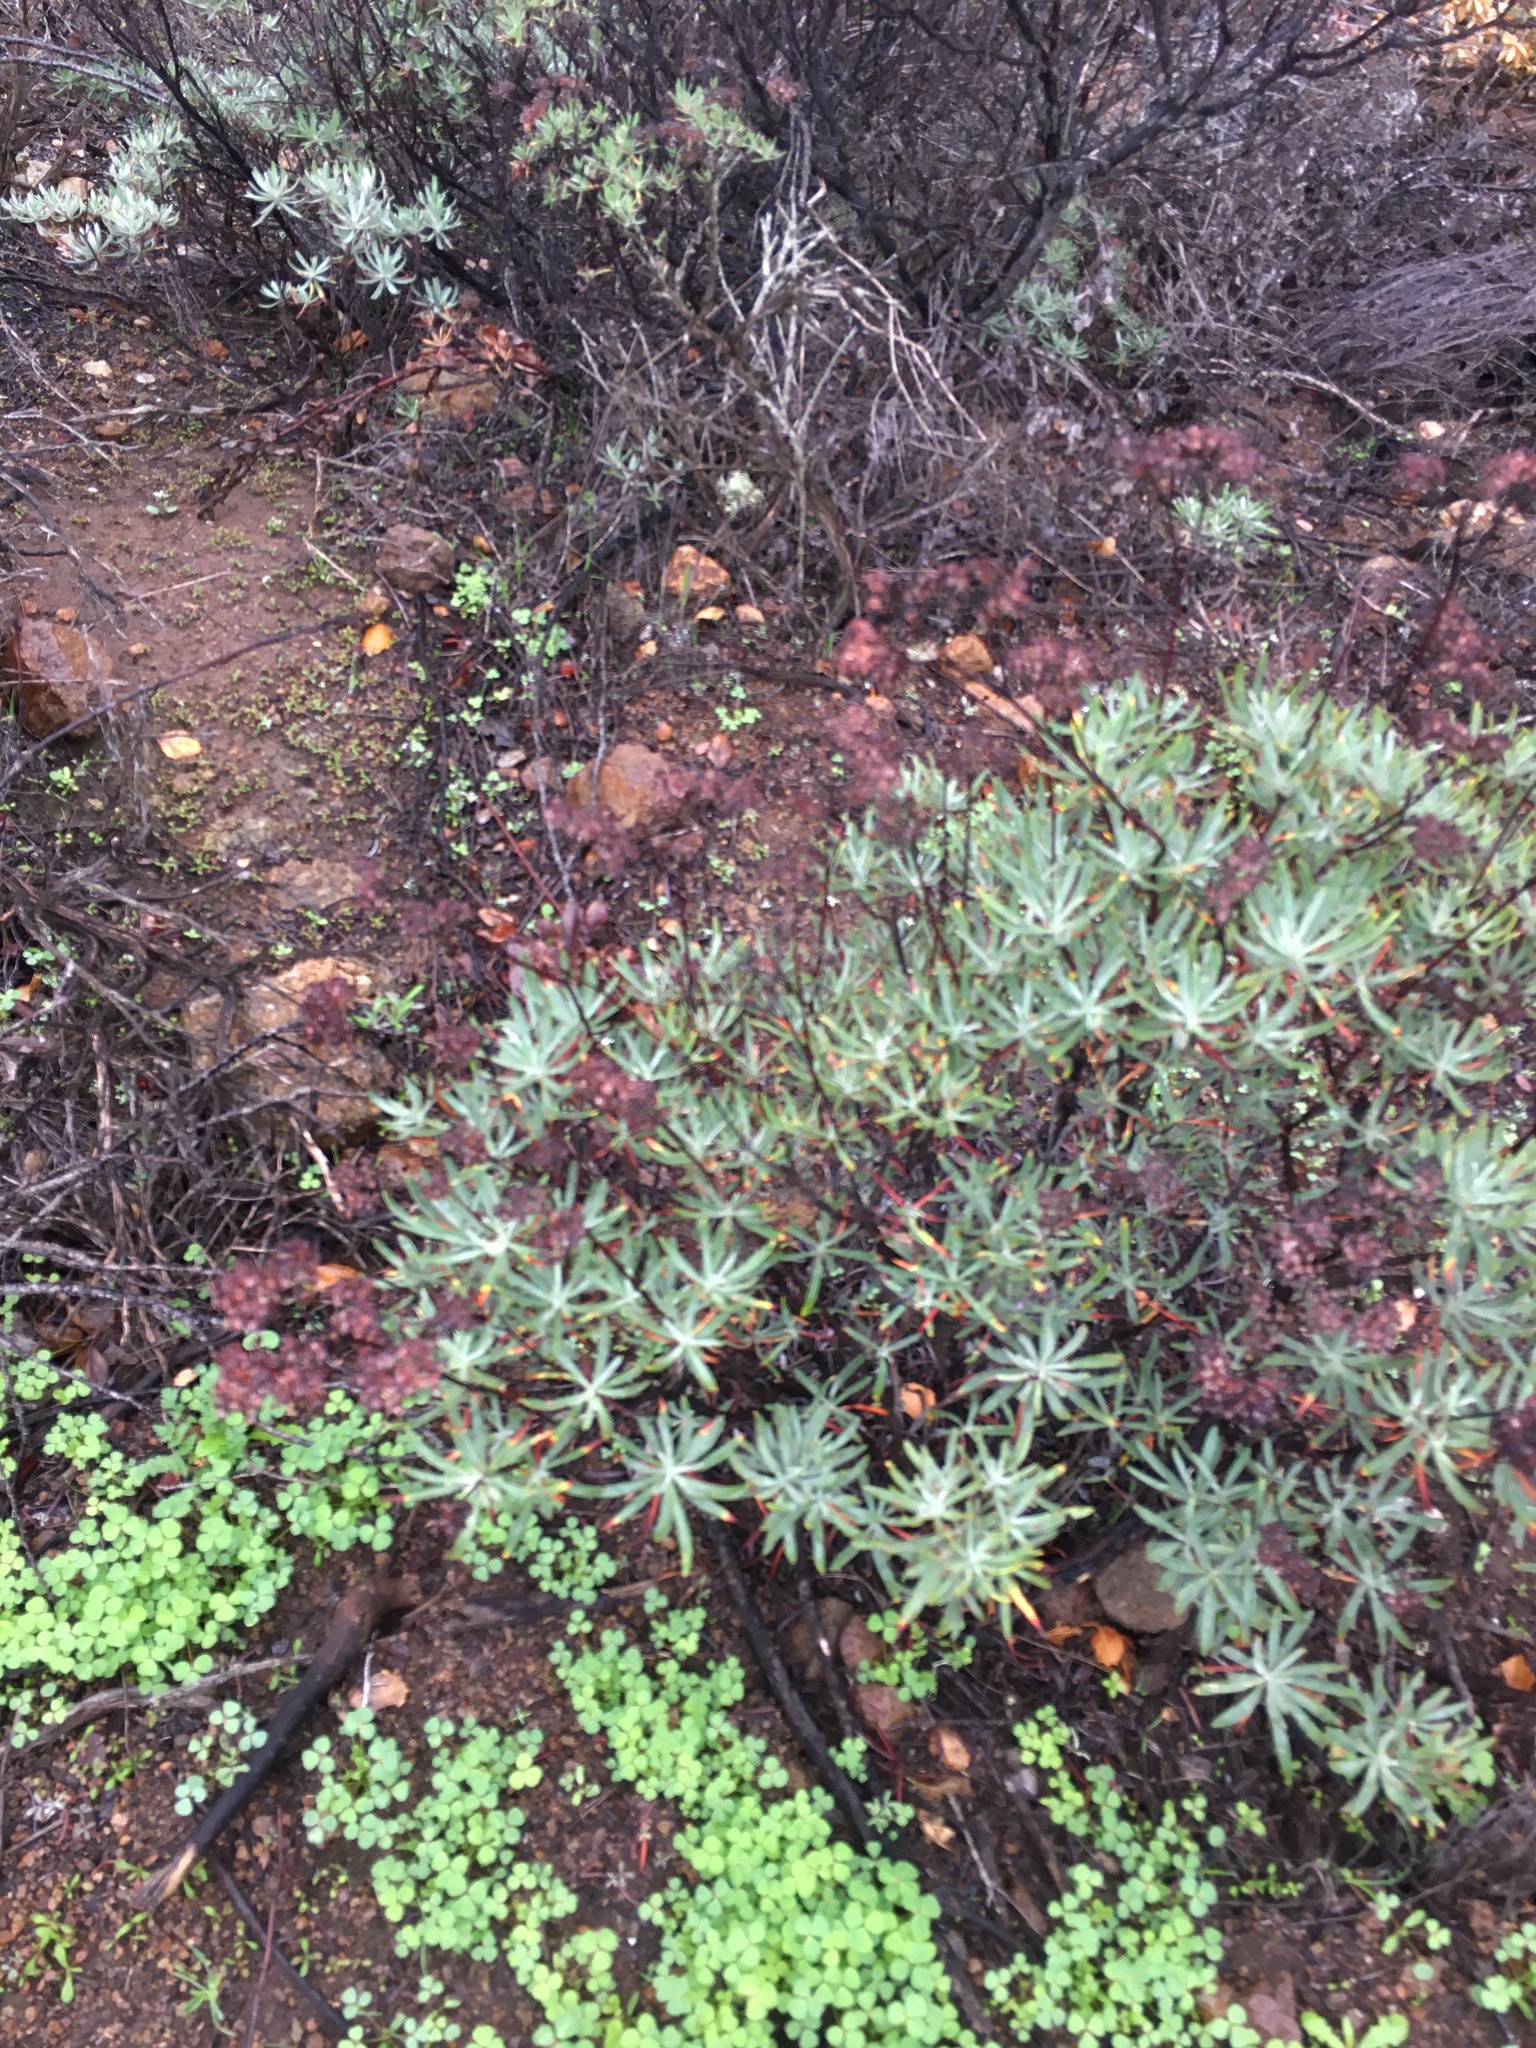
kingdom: Plantae
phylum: Tracheophyta
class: Magnoliopsida
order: Caryophyllales
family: Polygonaceae
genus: Eriogonum
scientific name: Eriogonum arborescens
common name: Island buckwheat
